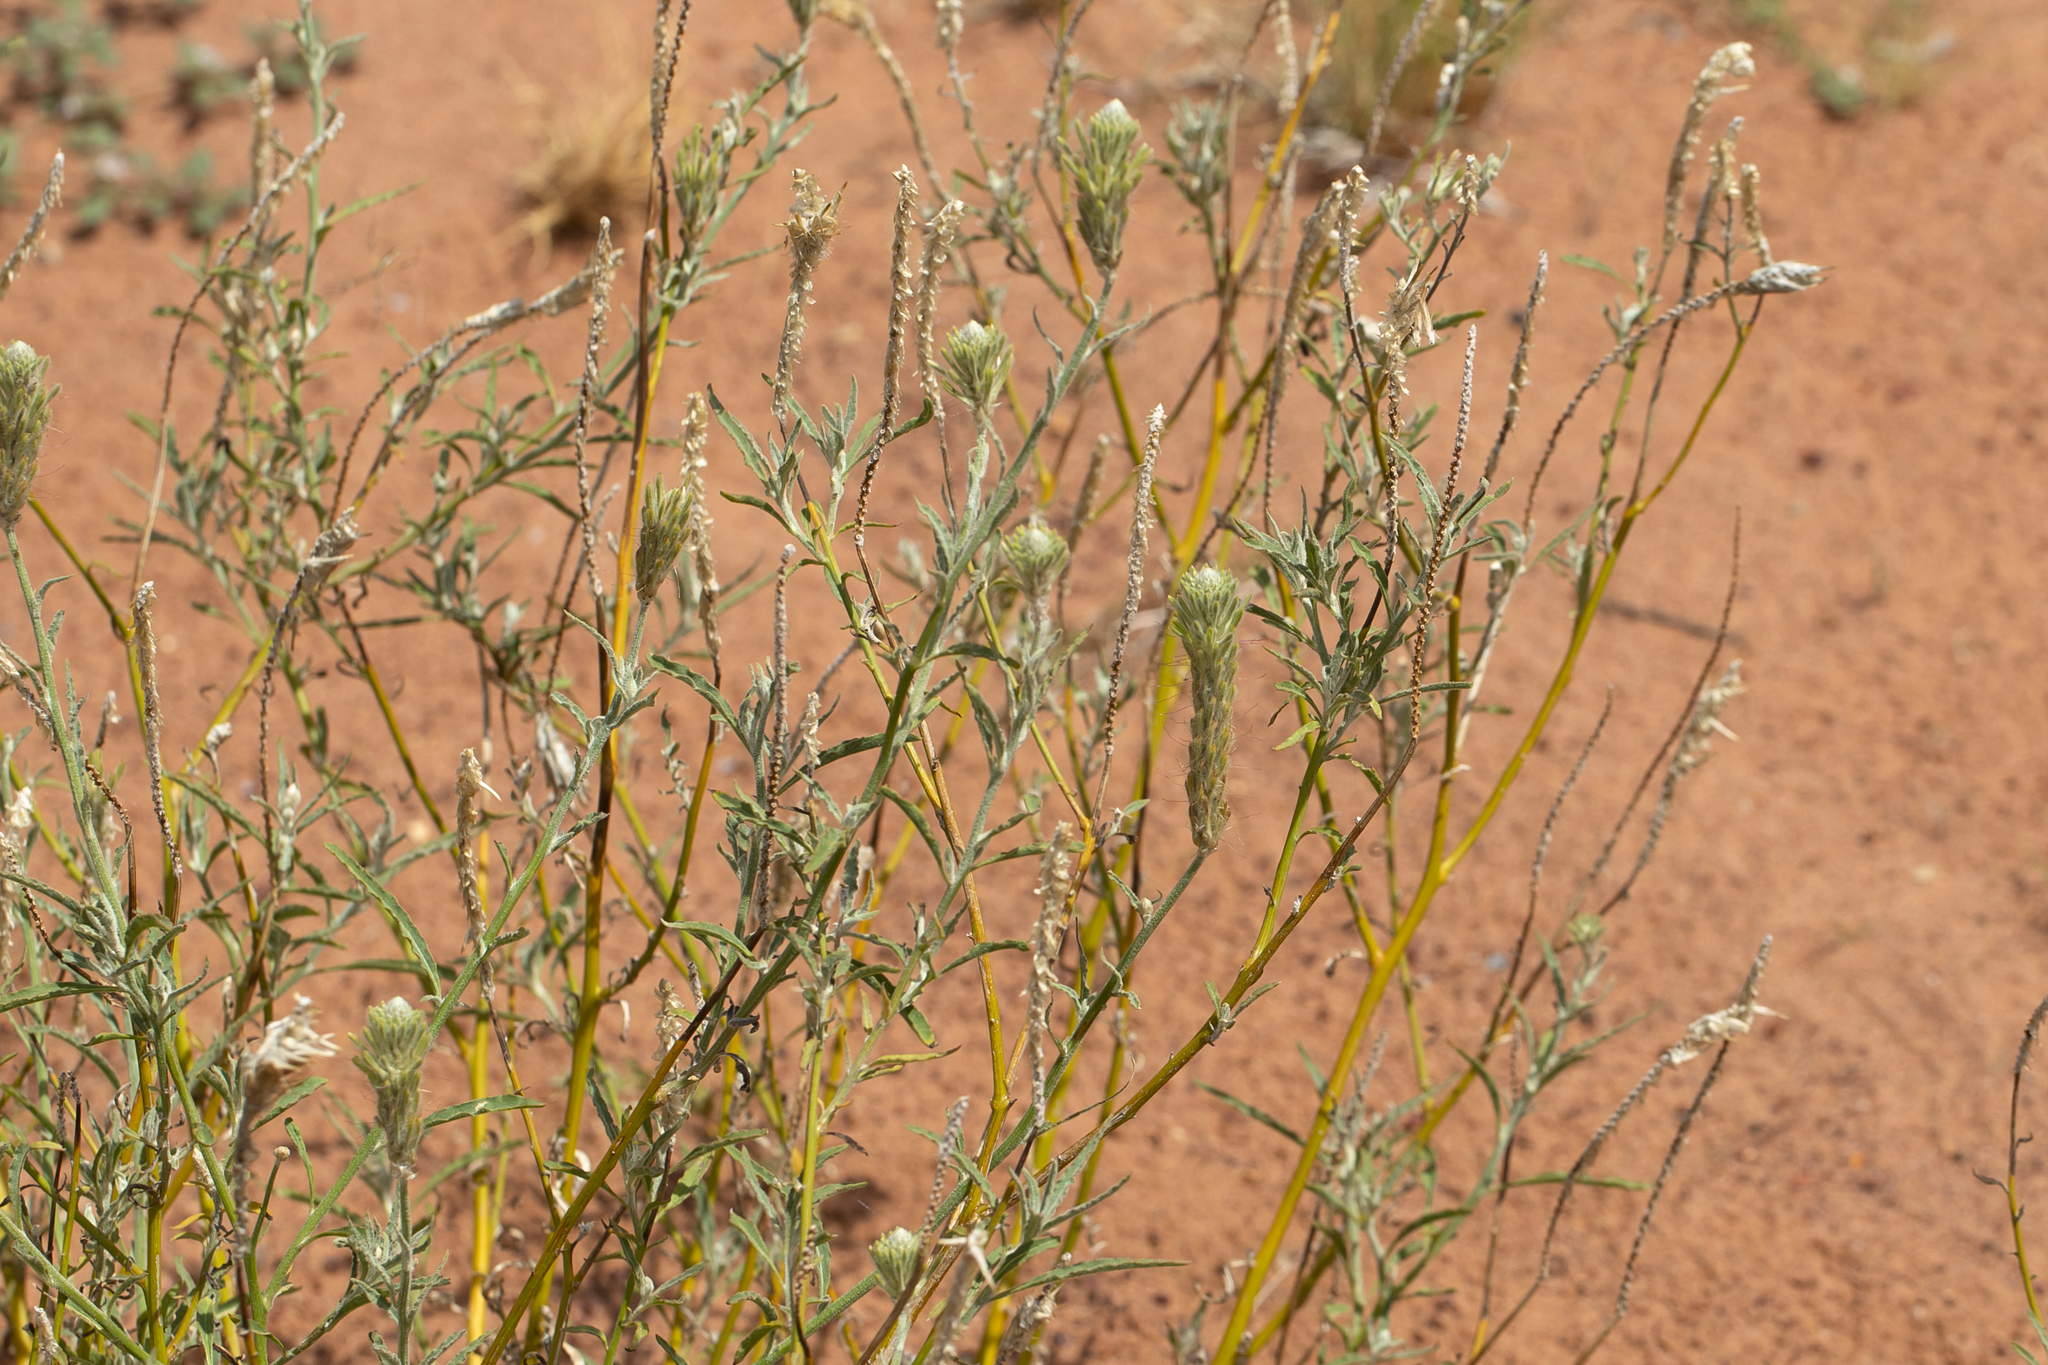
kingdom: Plantae
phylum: Tracheophyta
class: Magnoliopsida
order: Caryophyllales
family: Amaranthaceae
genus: Ptilotus
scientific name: Ptilotus polystachyus
